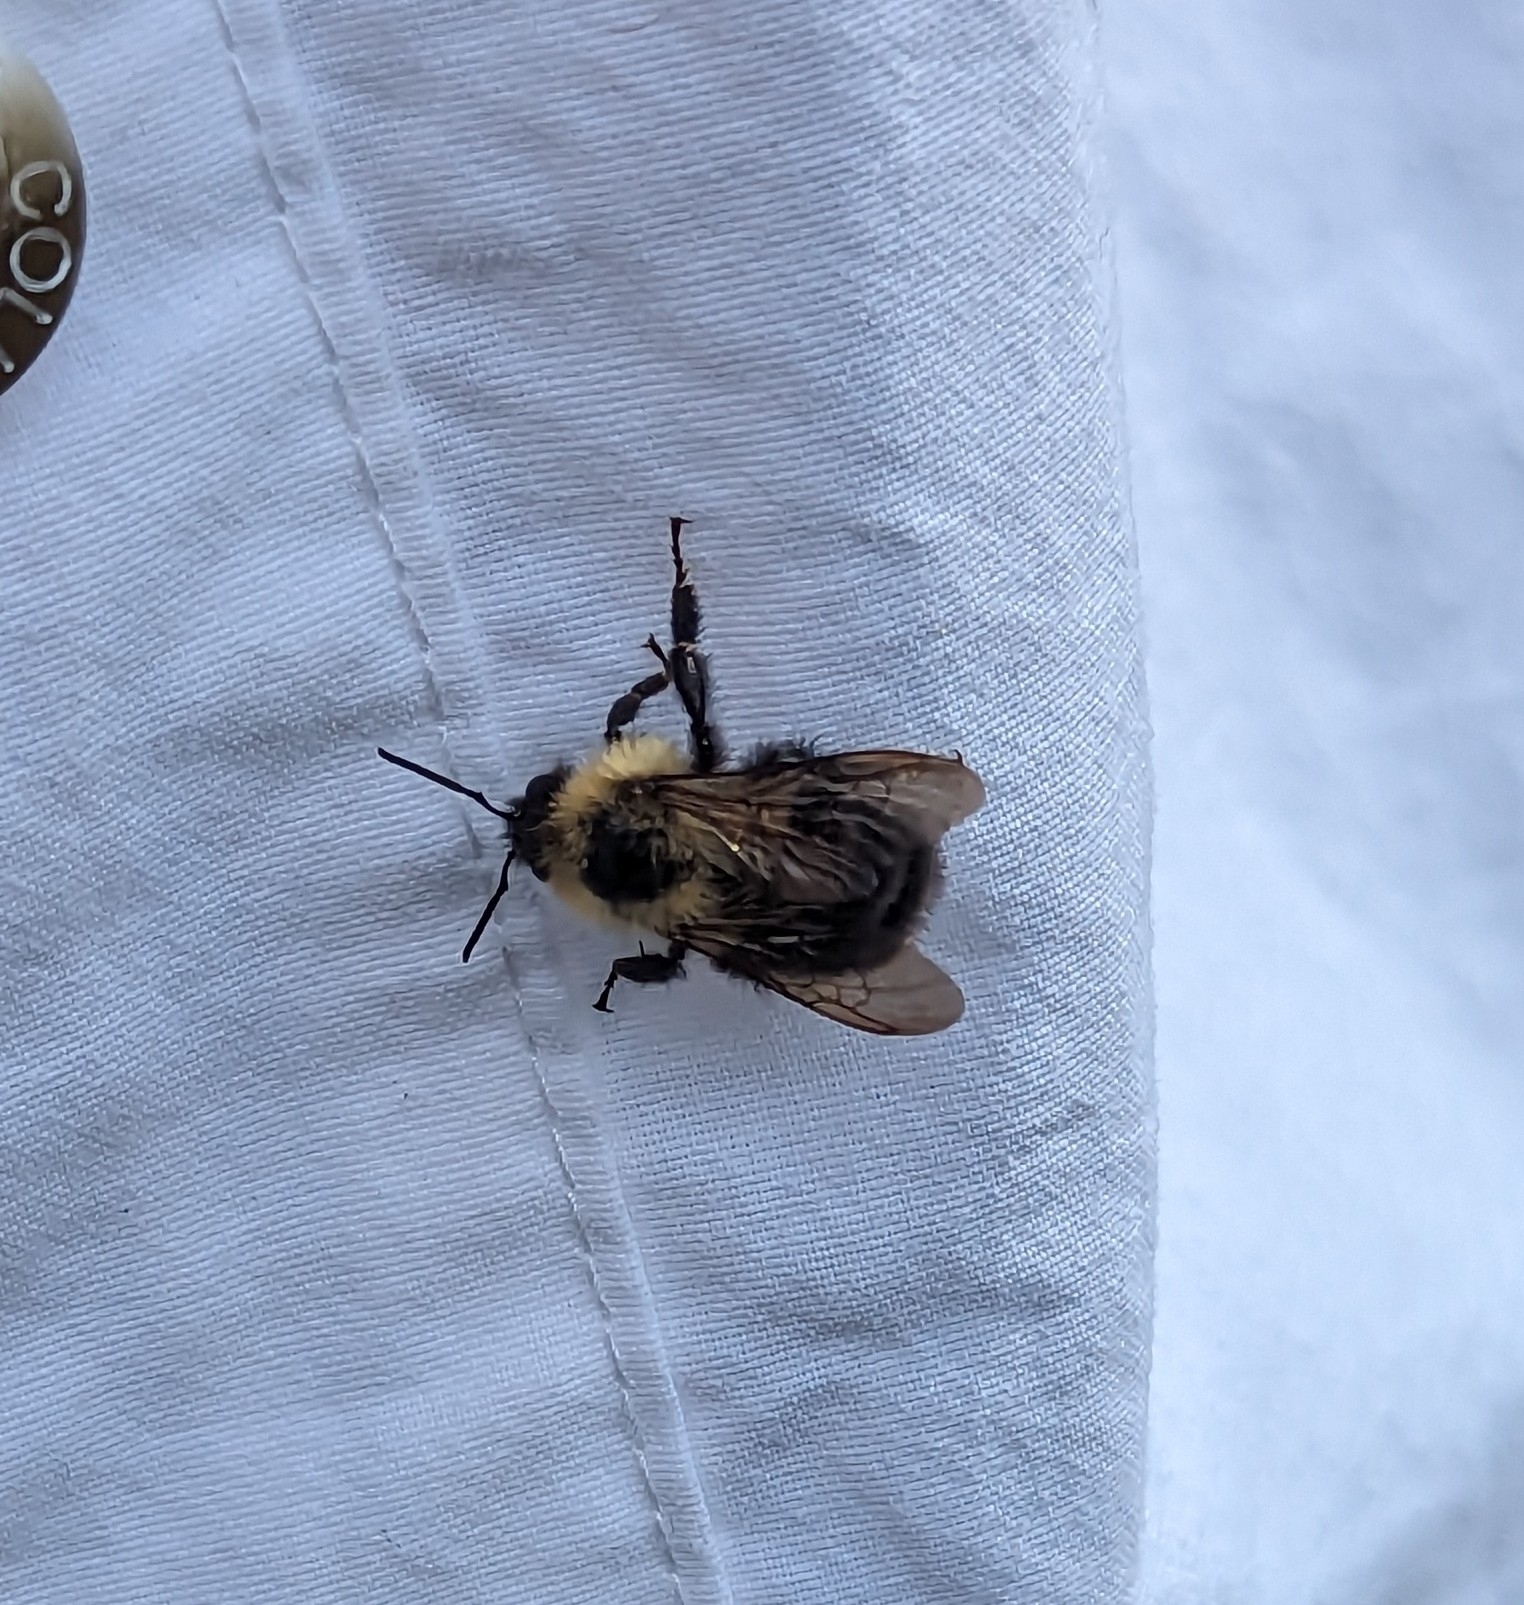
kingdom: Animalia
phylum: Arthropoda
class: Insecta
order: Hymenoptera
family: Apidae
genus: Bombus
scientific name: Bombus bimaculatus
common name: Two-spotted bumble bee
